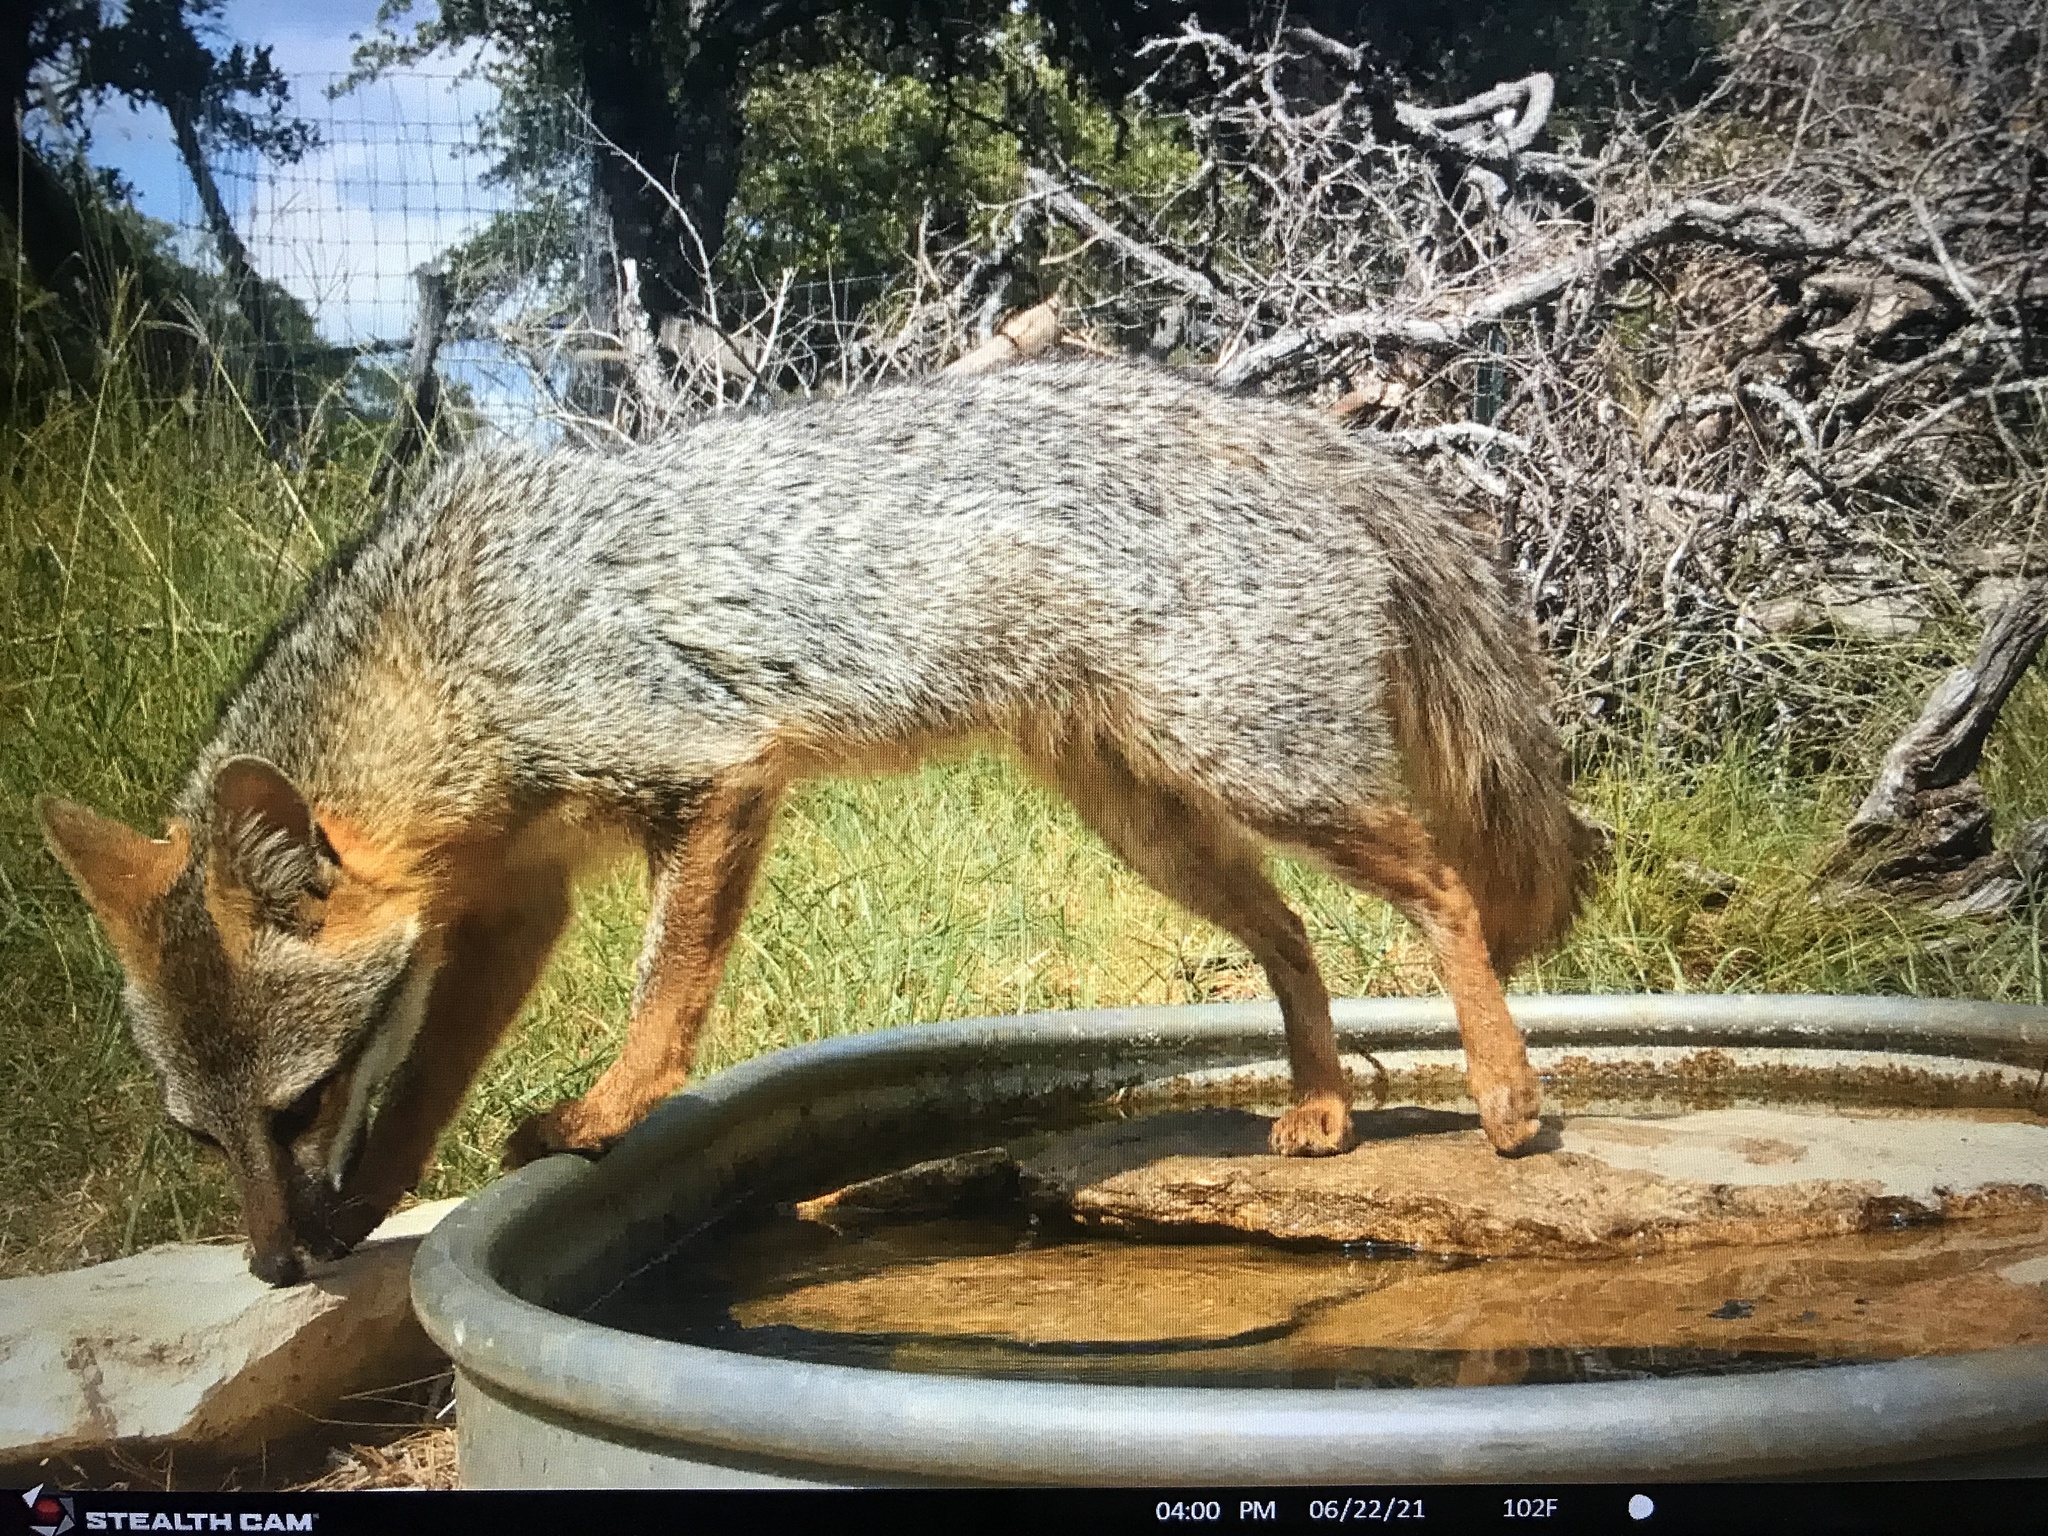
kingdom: Animalia
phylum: Chordata
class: Mammalia
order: Carnivora
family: Canidae
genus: Urocyon
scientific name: Urocyon cinereoargenteus
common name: Gray fox
